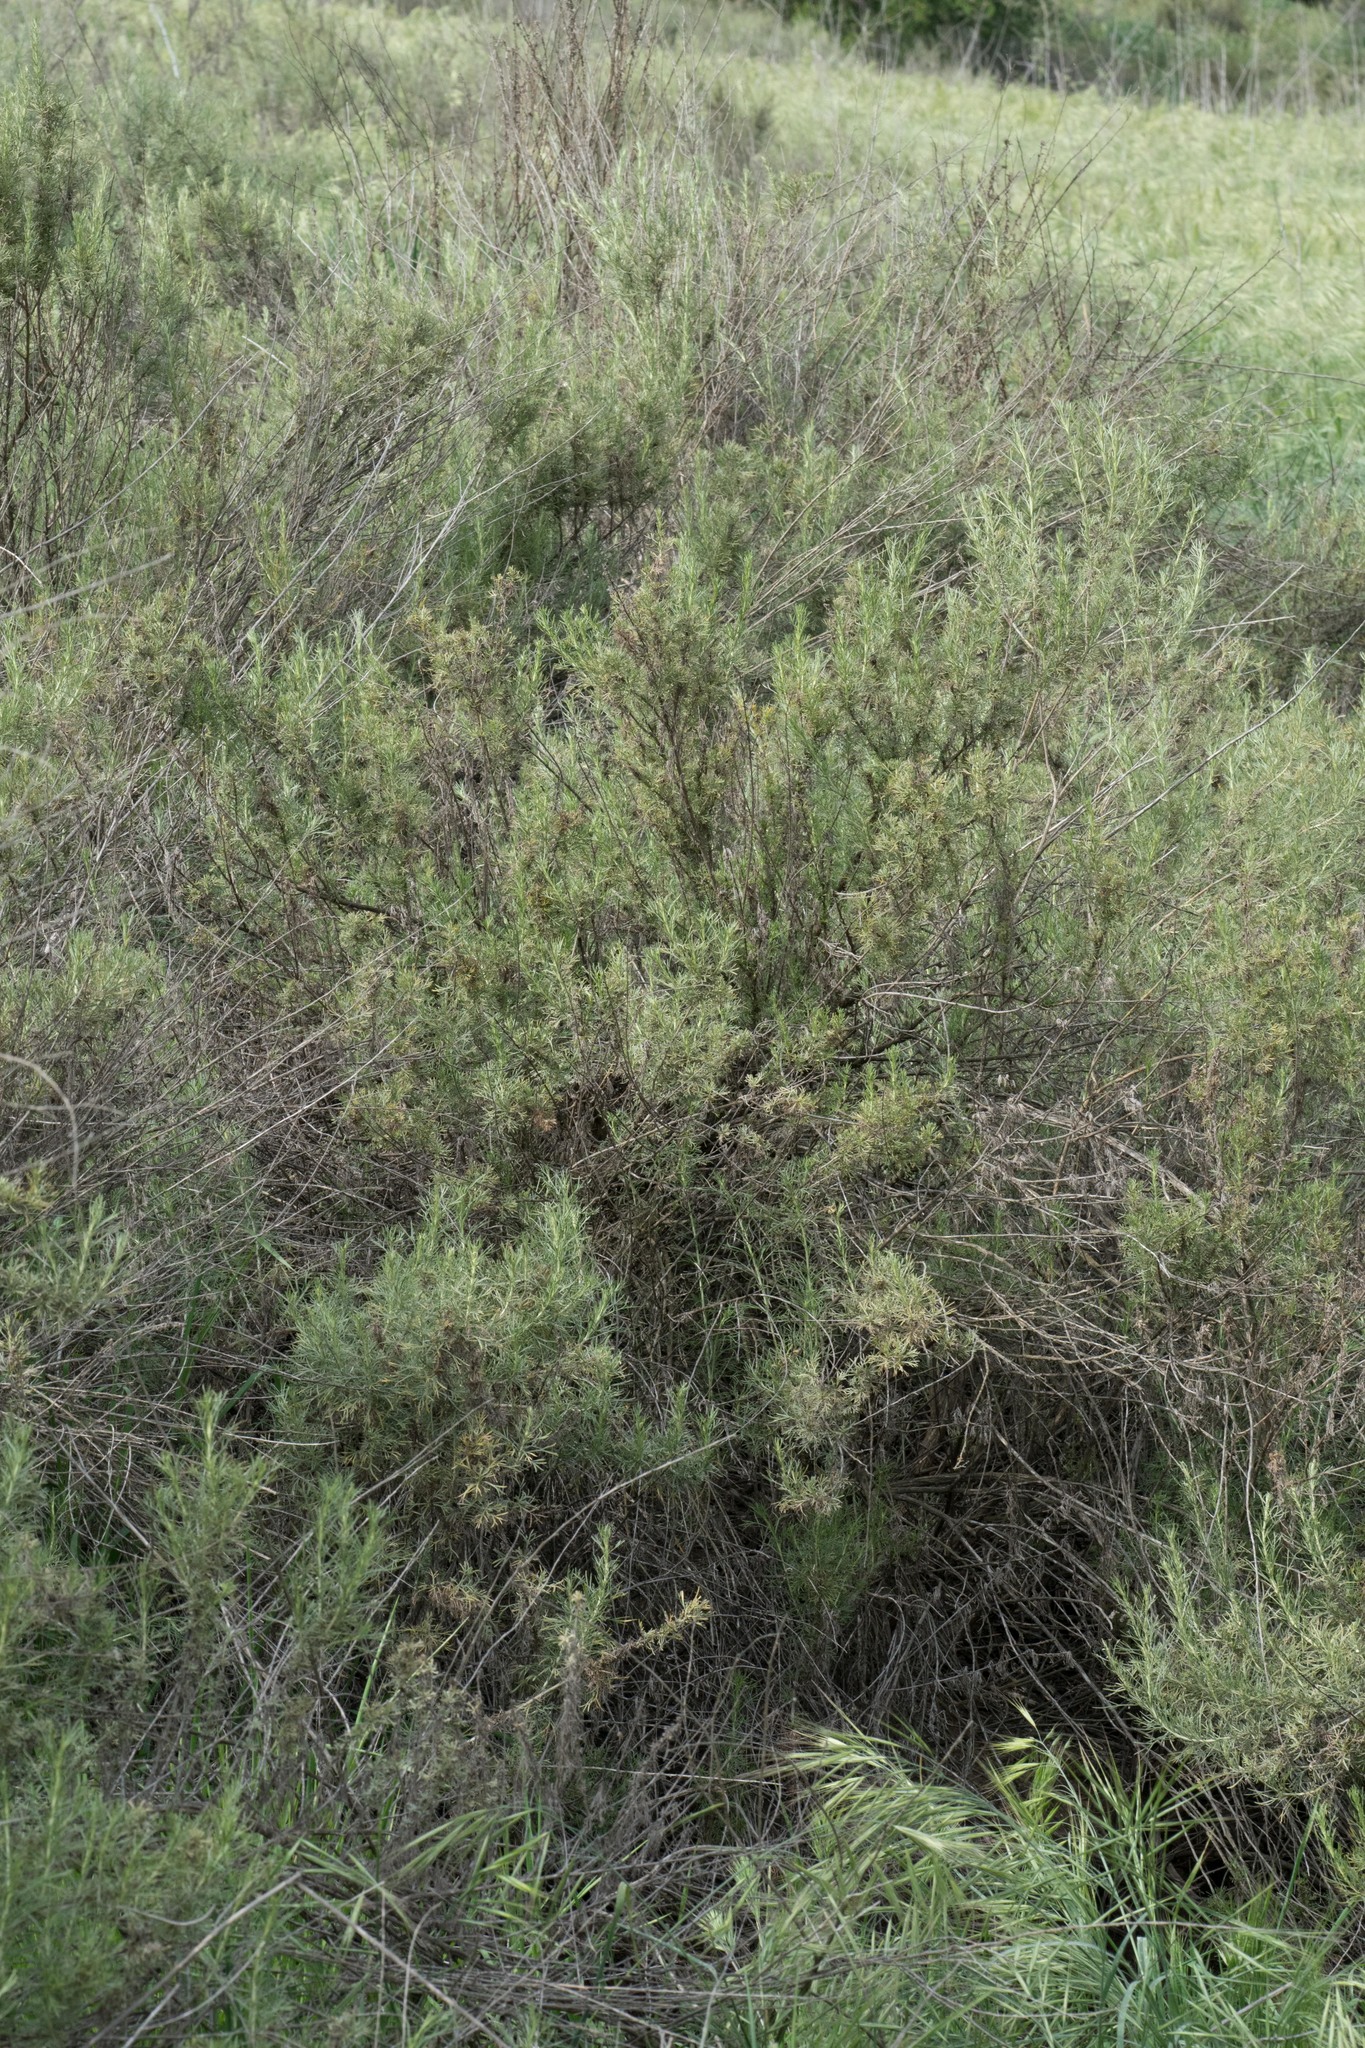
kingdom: Plantae
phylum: Tracheophyta
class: Magnoliopsida
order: Asterales
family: Asteraceae
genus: Artemisia
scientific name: Artemisia californica
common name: California sagebrush
